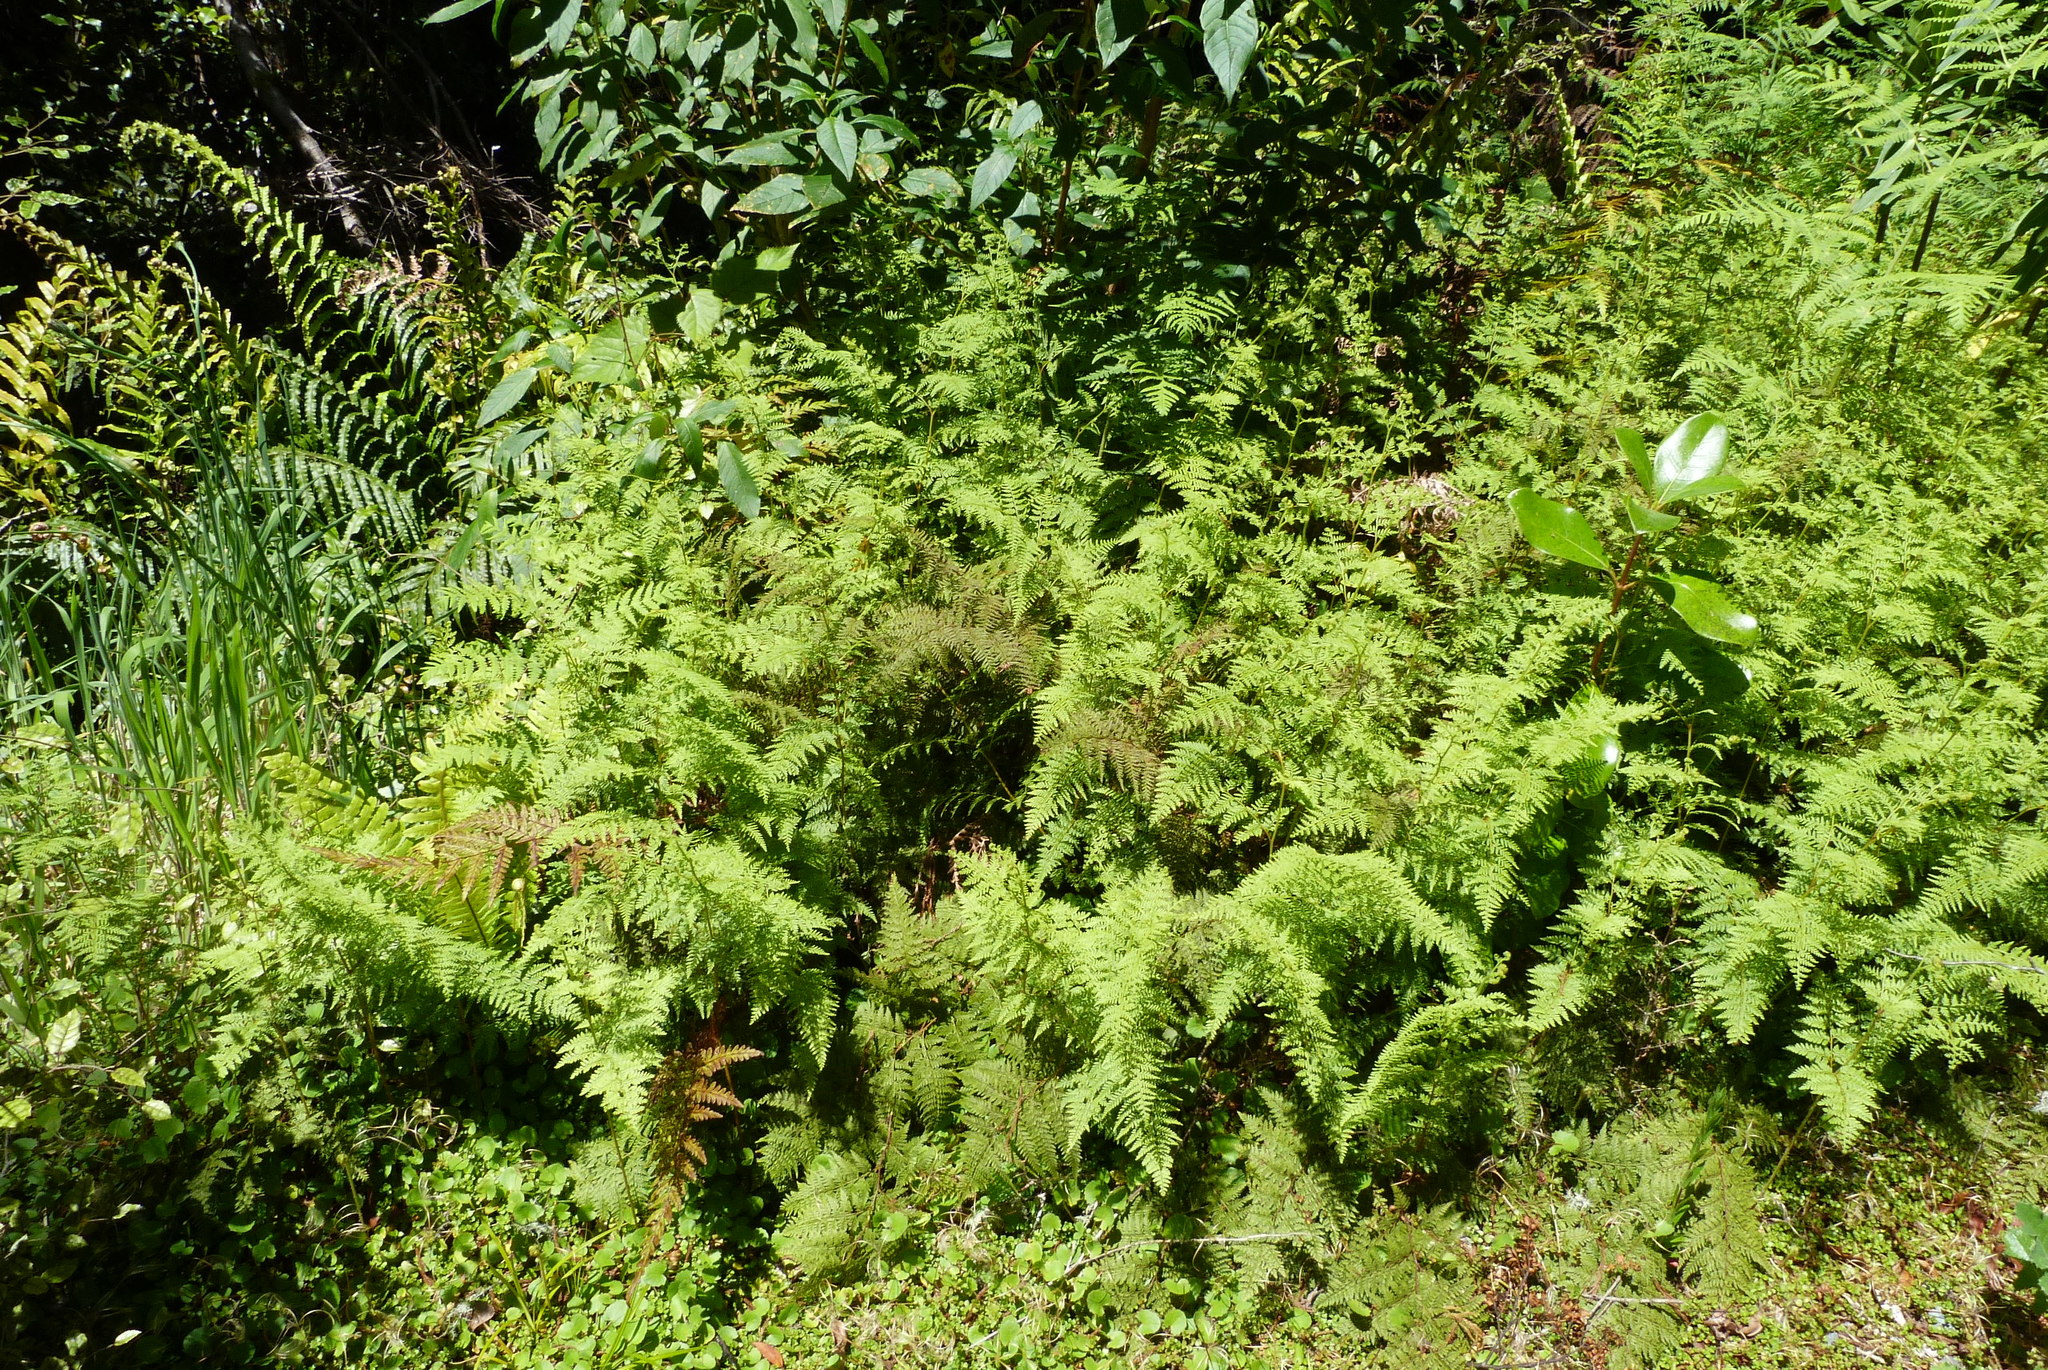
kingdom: Plantae
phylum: Tracheophyta
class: Polypodiopsida
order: Polypodiales
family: Dennstaedtiaceae
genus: Paesia
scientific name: Paesia scaberula
